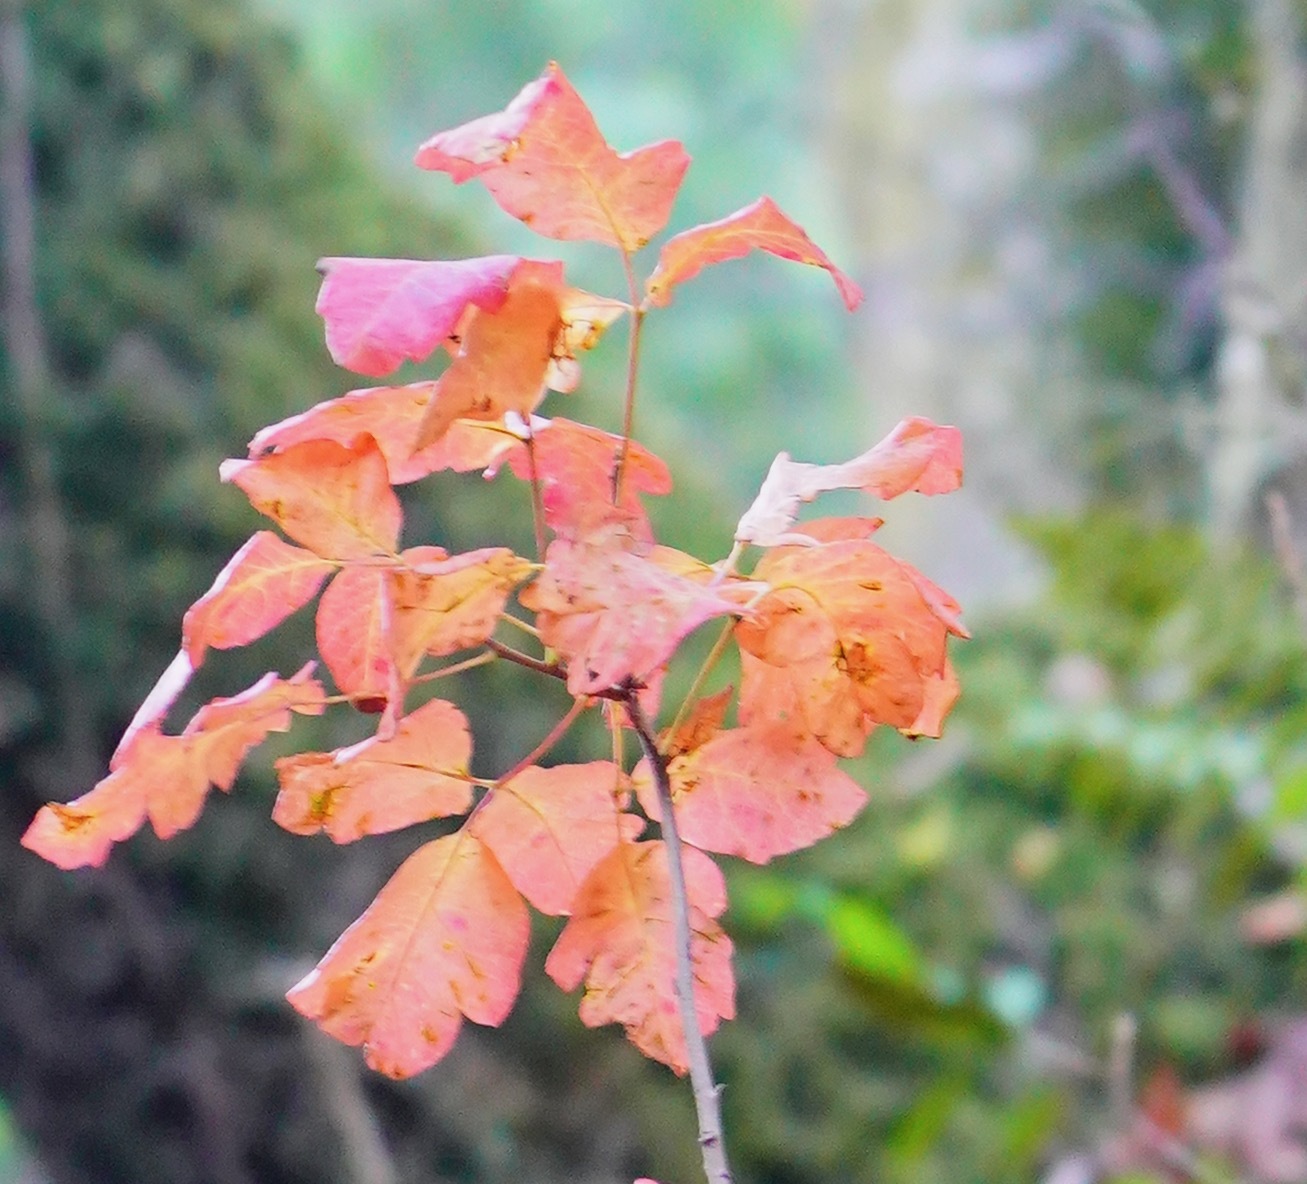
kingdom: Plantae
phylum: Tracheophyta
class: Magnoliopsida
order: Sapindales
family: Anacardiaceae
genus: Toxicodendron
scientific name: Toxicodendron diversilobum
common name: Pacific poison-oak
